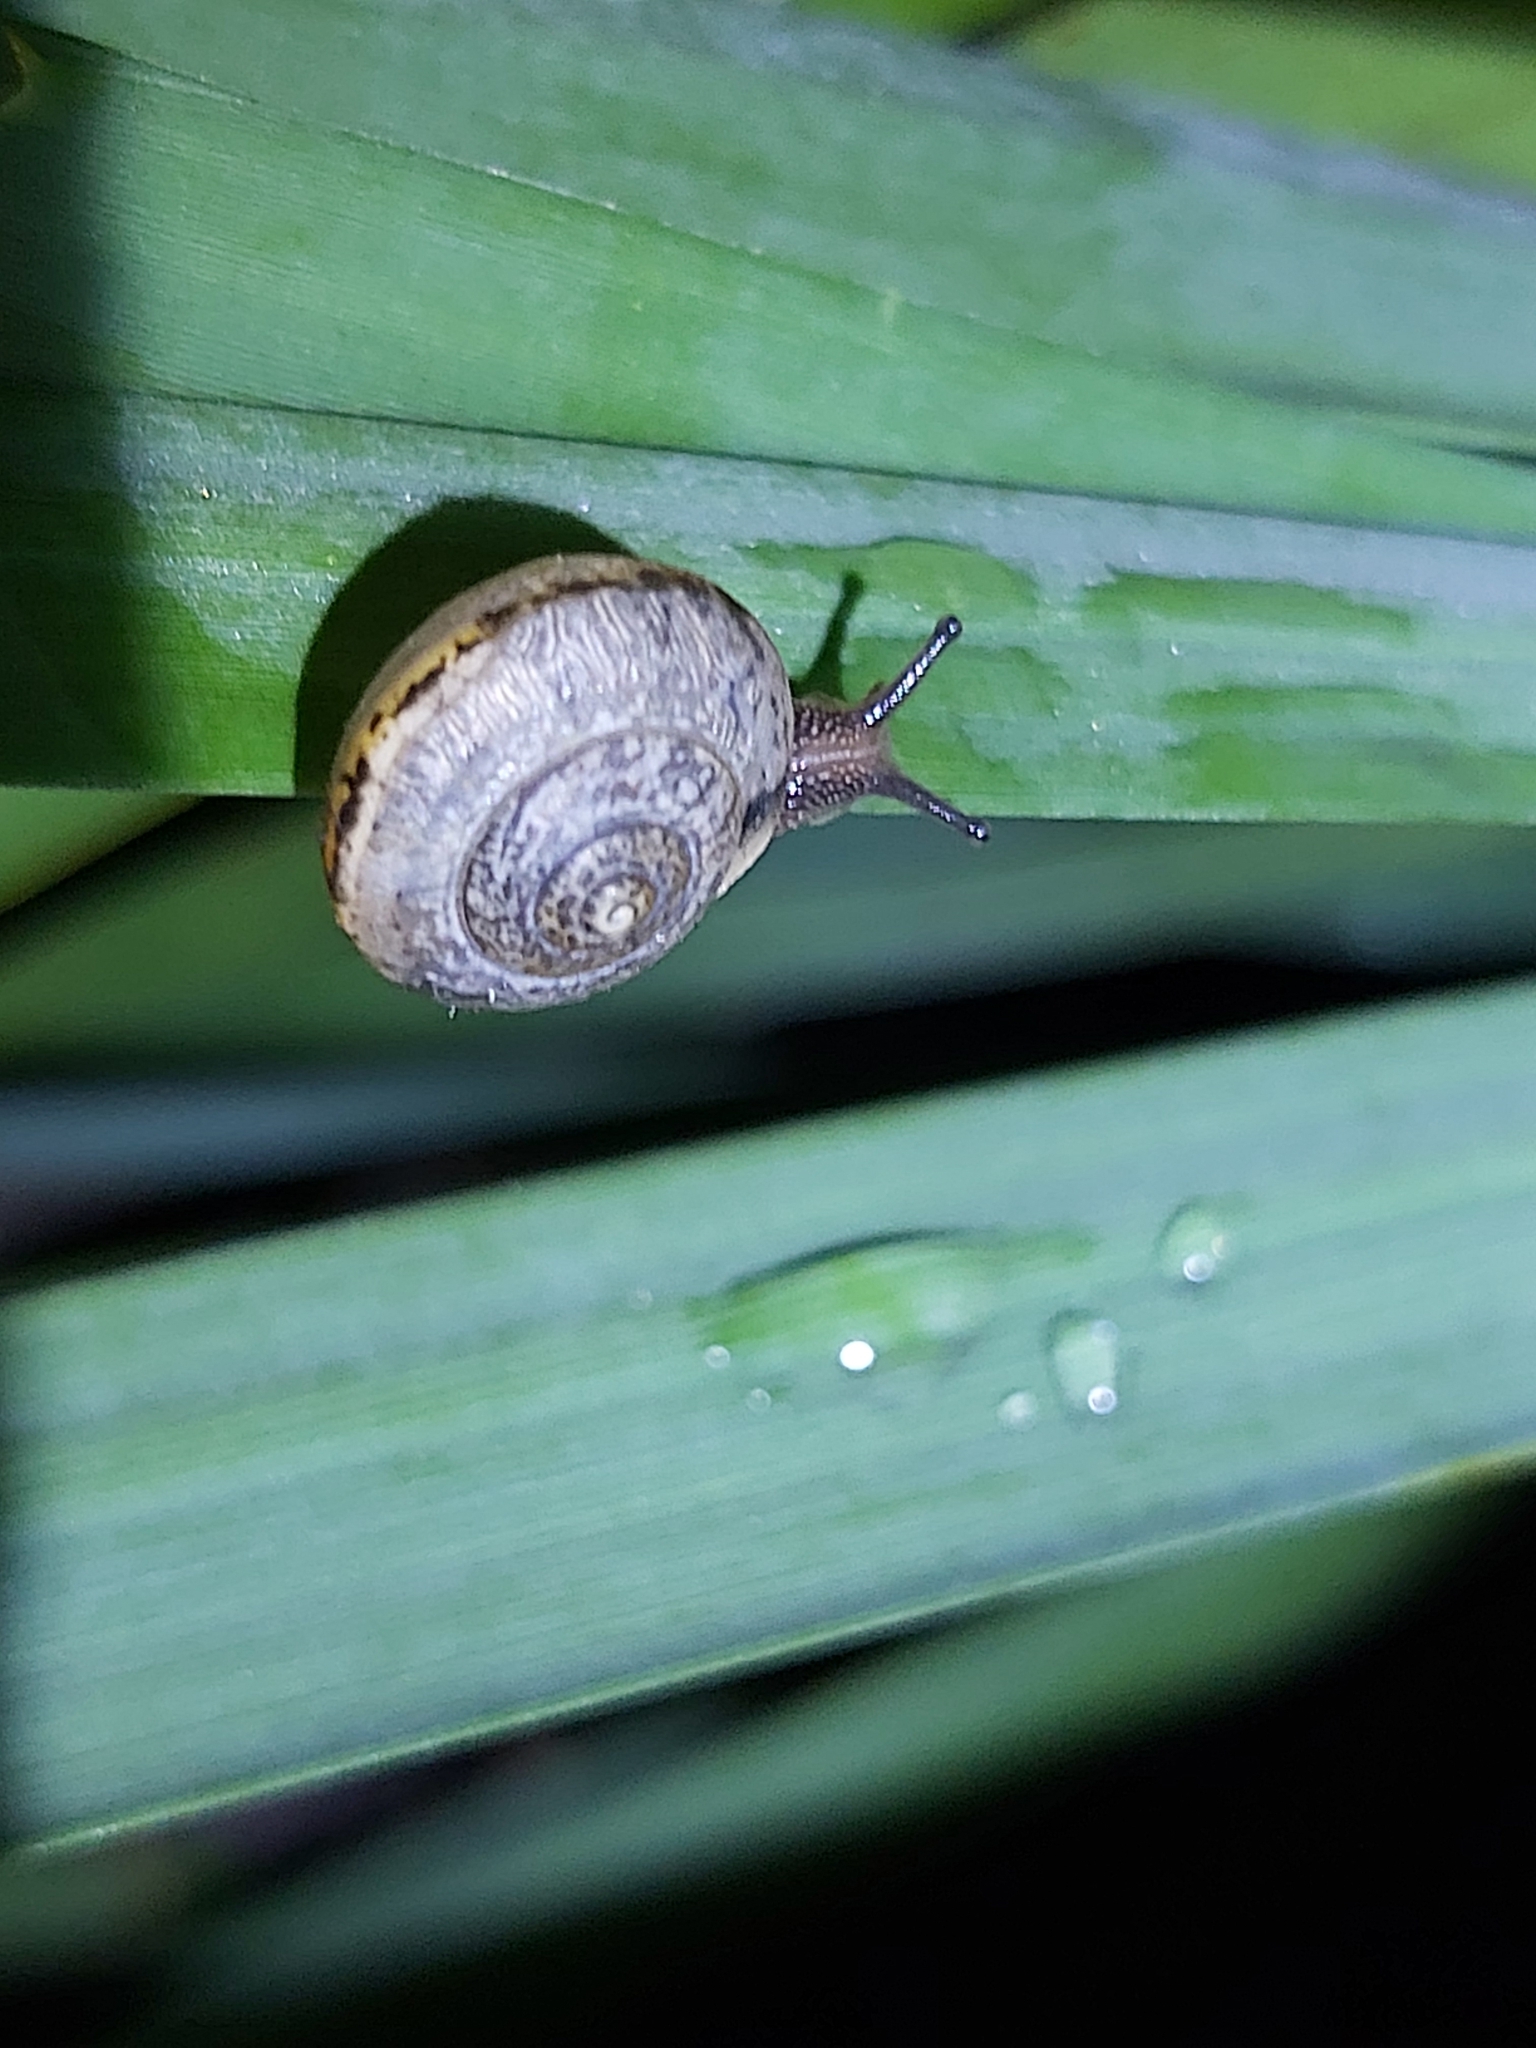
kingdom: Animalia
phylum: Mollusca
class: Gastropoda
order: Stylommatophora
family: Camaenidae
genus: Bradybaena
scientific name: Bradybaena similaris
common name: Asian trampsnail
